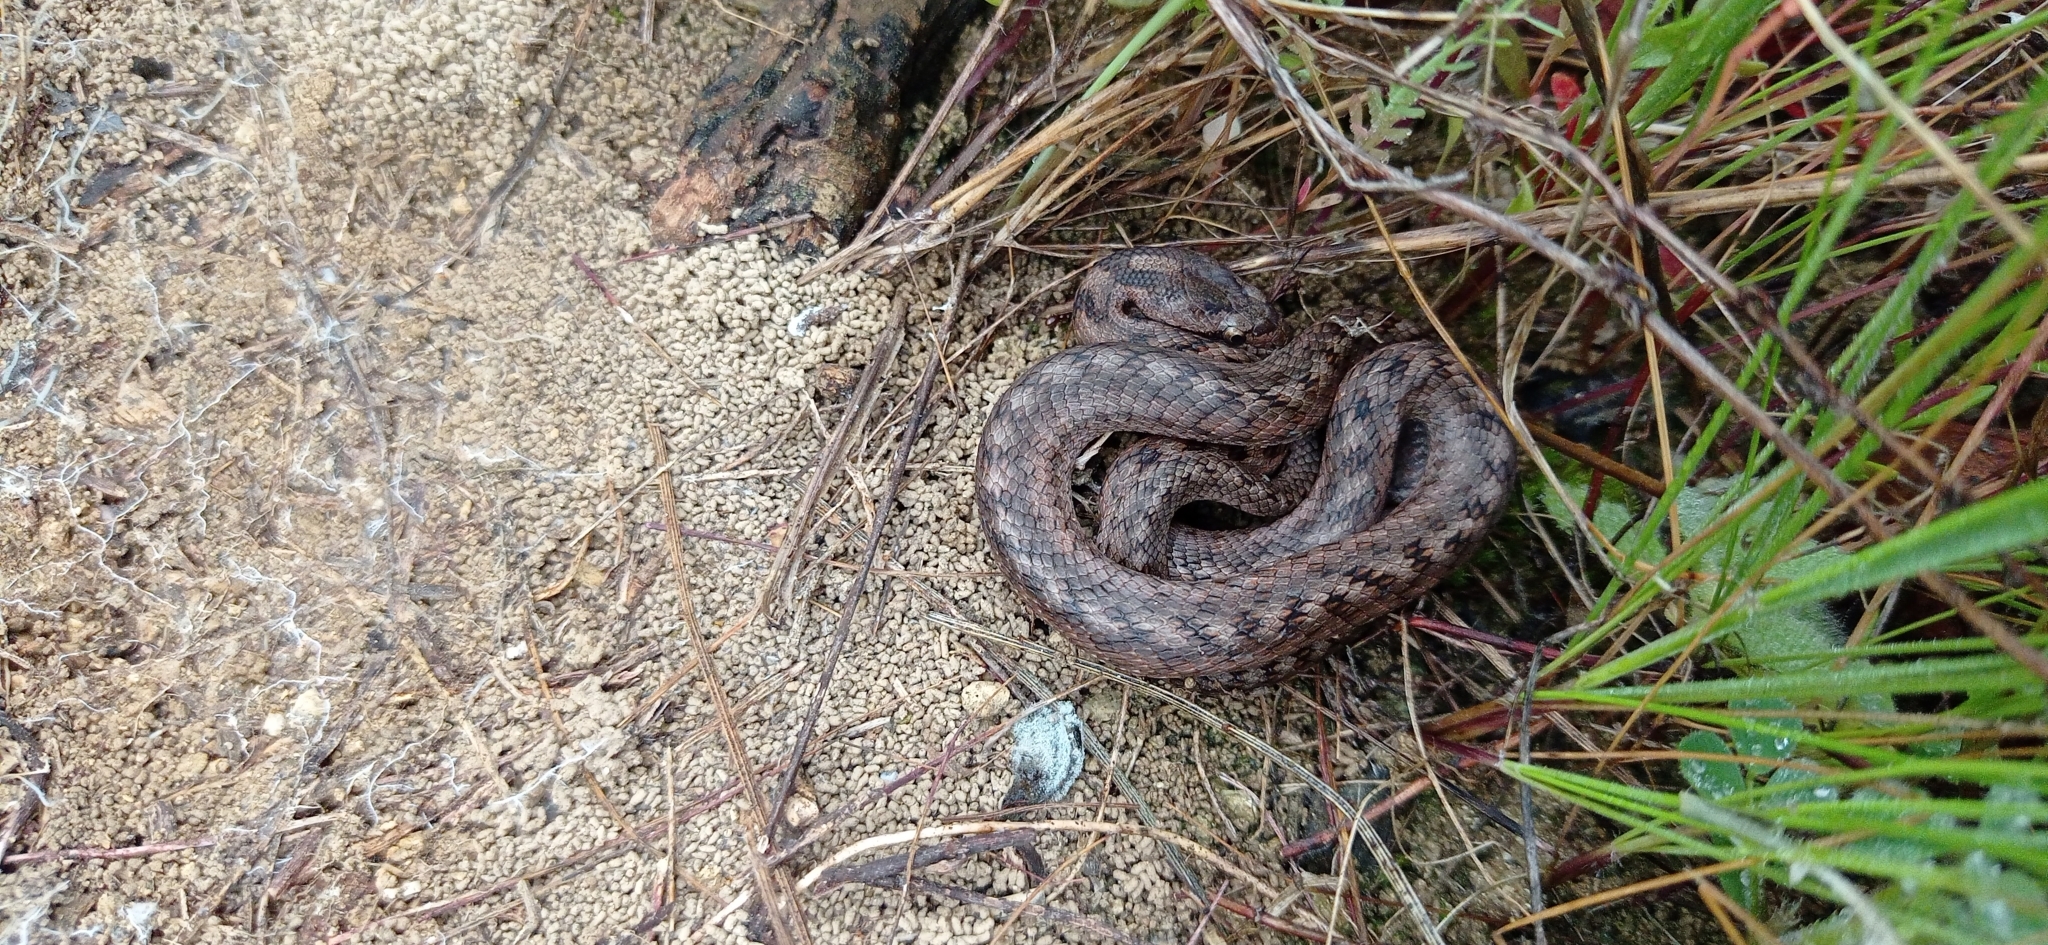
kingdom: Animalia
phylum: Chordata
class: Squamata
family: Colubridae
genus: Coronella
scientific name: Coronella girondica
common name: Southern smooth snake
